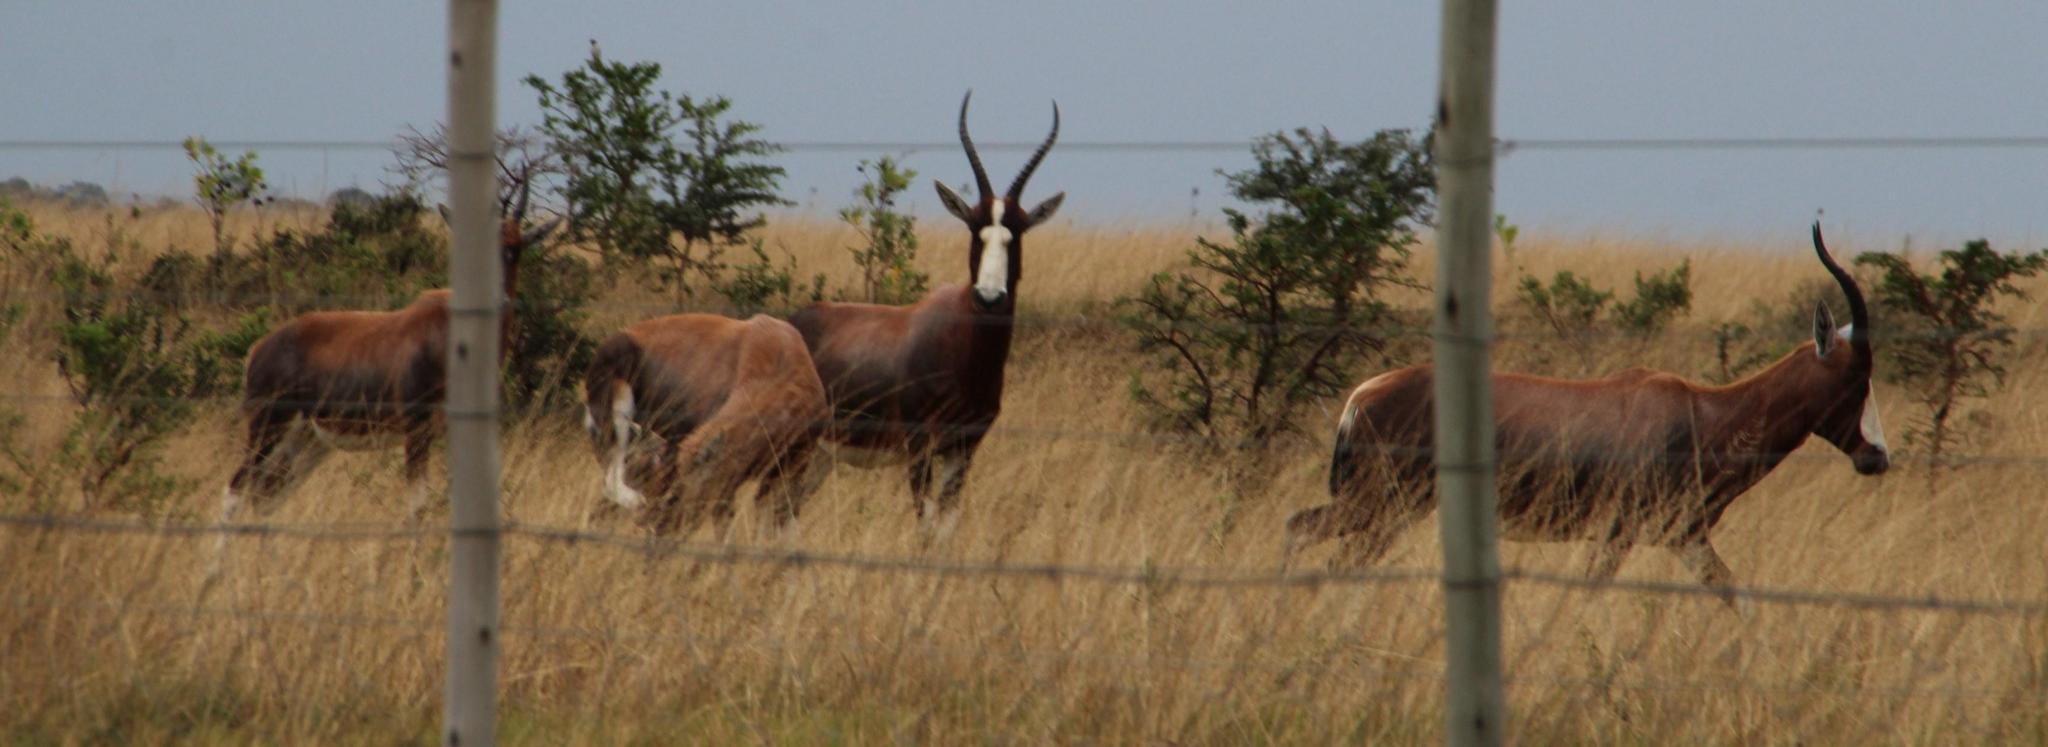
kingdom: Animalia
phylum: Chordata
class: Mammalia
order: Artiodactyla
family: Bovidae
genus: Damaliscus
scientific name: Damaliscus pygargus
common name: Bontebok
